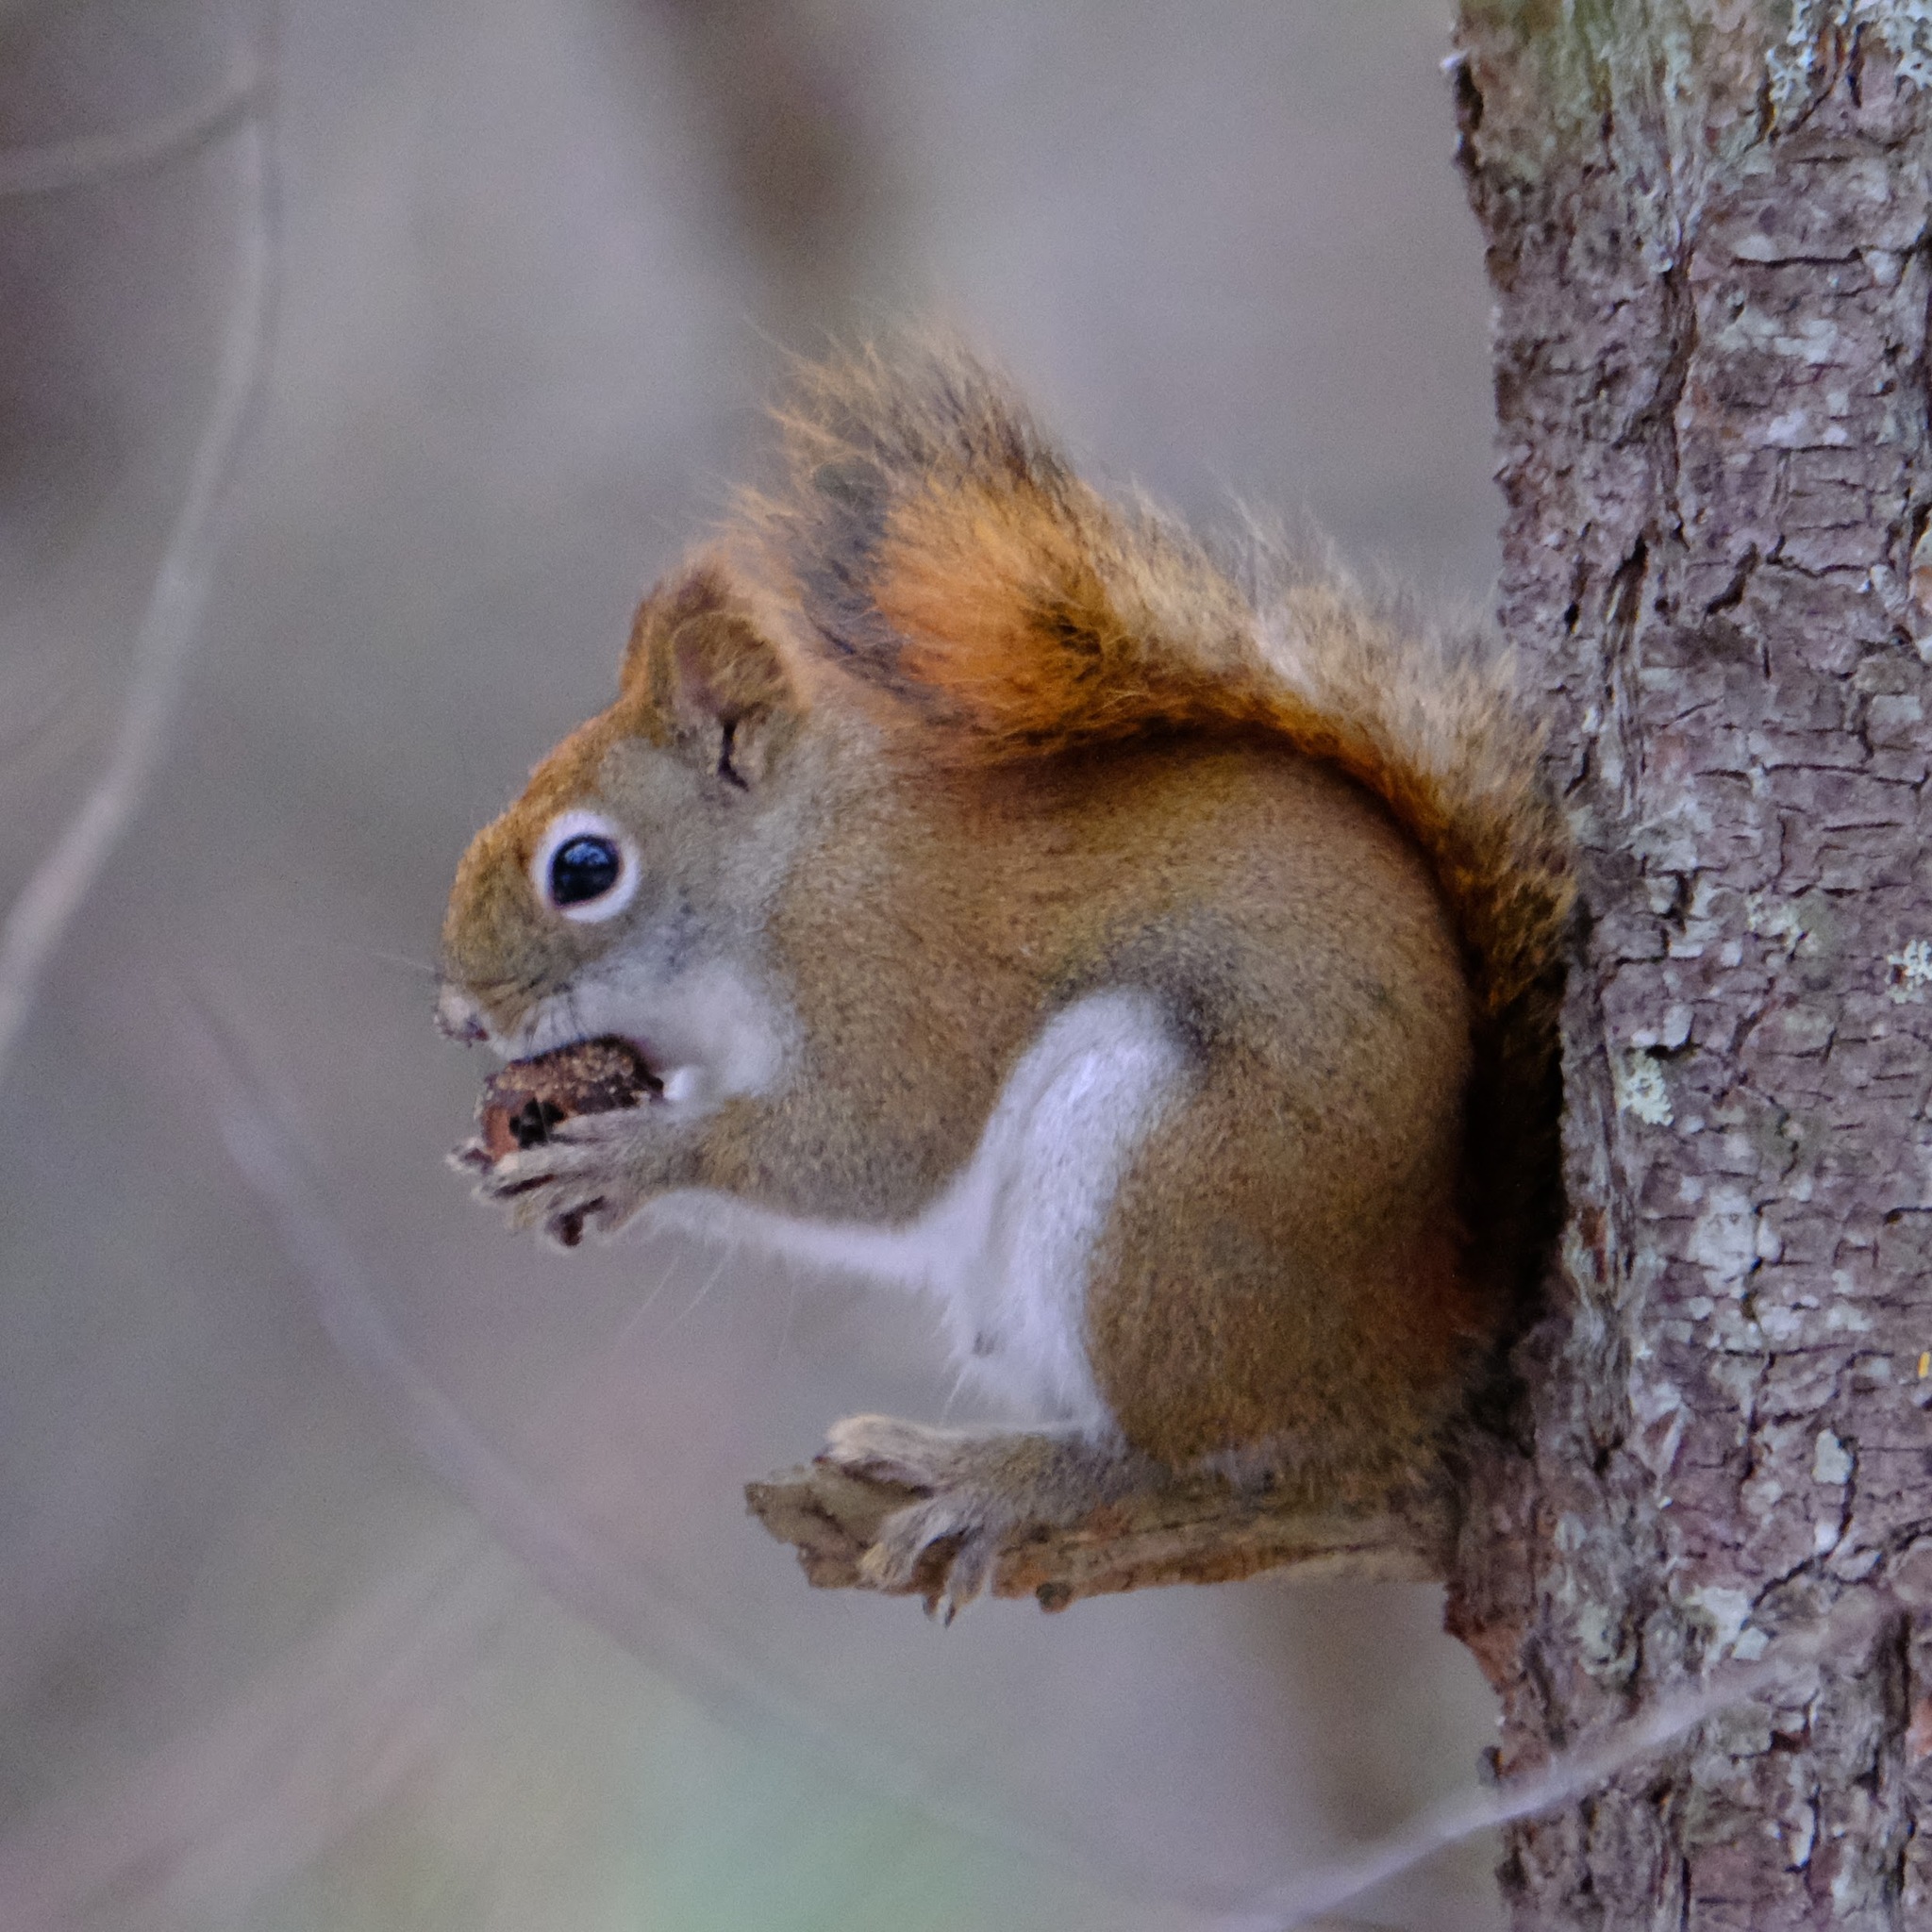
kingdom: Animalia
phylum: Chordata
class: Mammalia
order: Rodentia
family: Sciuridae
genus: Tamiasciurus
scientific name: Tamiasciurus hudsonicus
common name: Red squirrel
